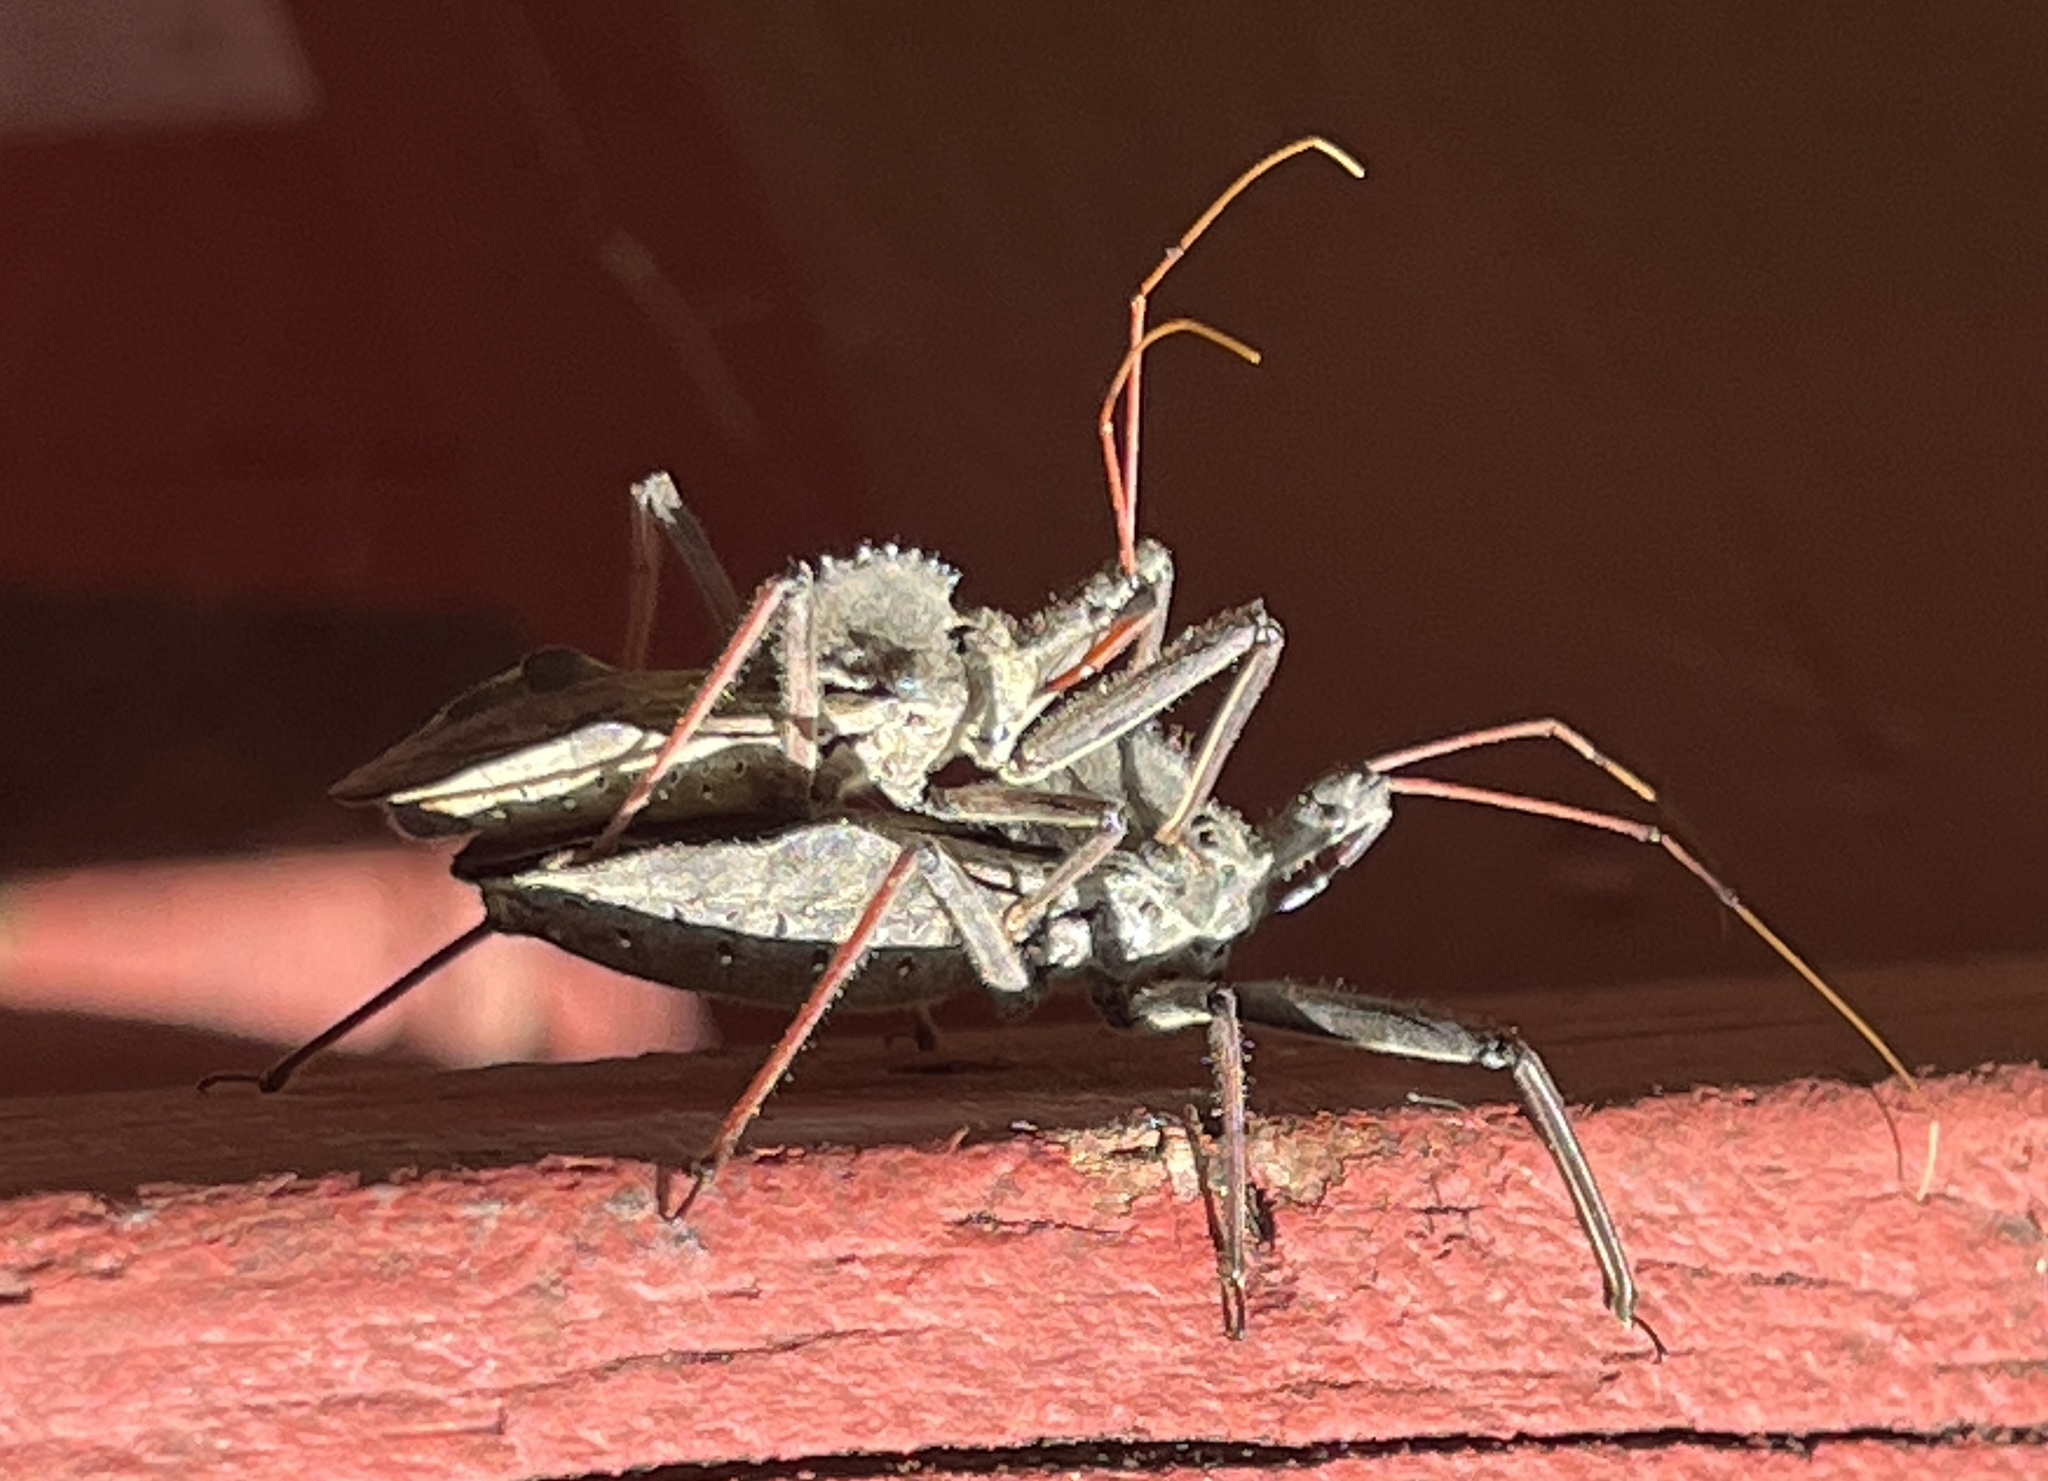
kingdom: Animalia
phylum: Arthropoda
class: Insecta
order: Hemiptera
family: Reduviidae
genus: Arilus
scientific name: Arilus cristatus
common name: North american wheel bug
